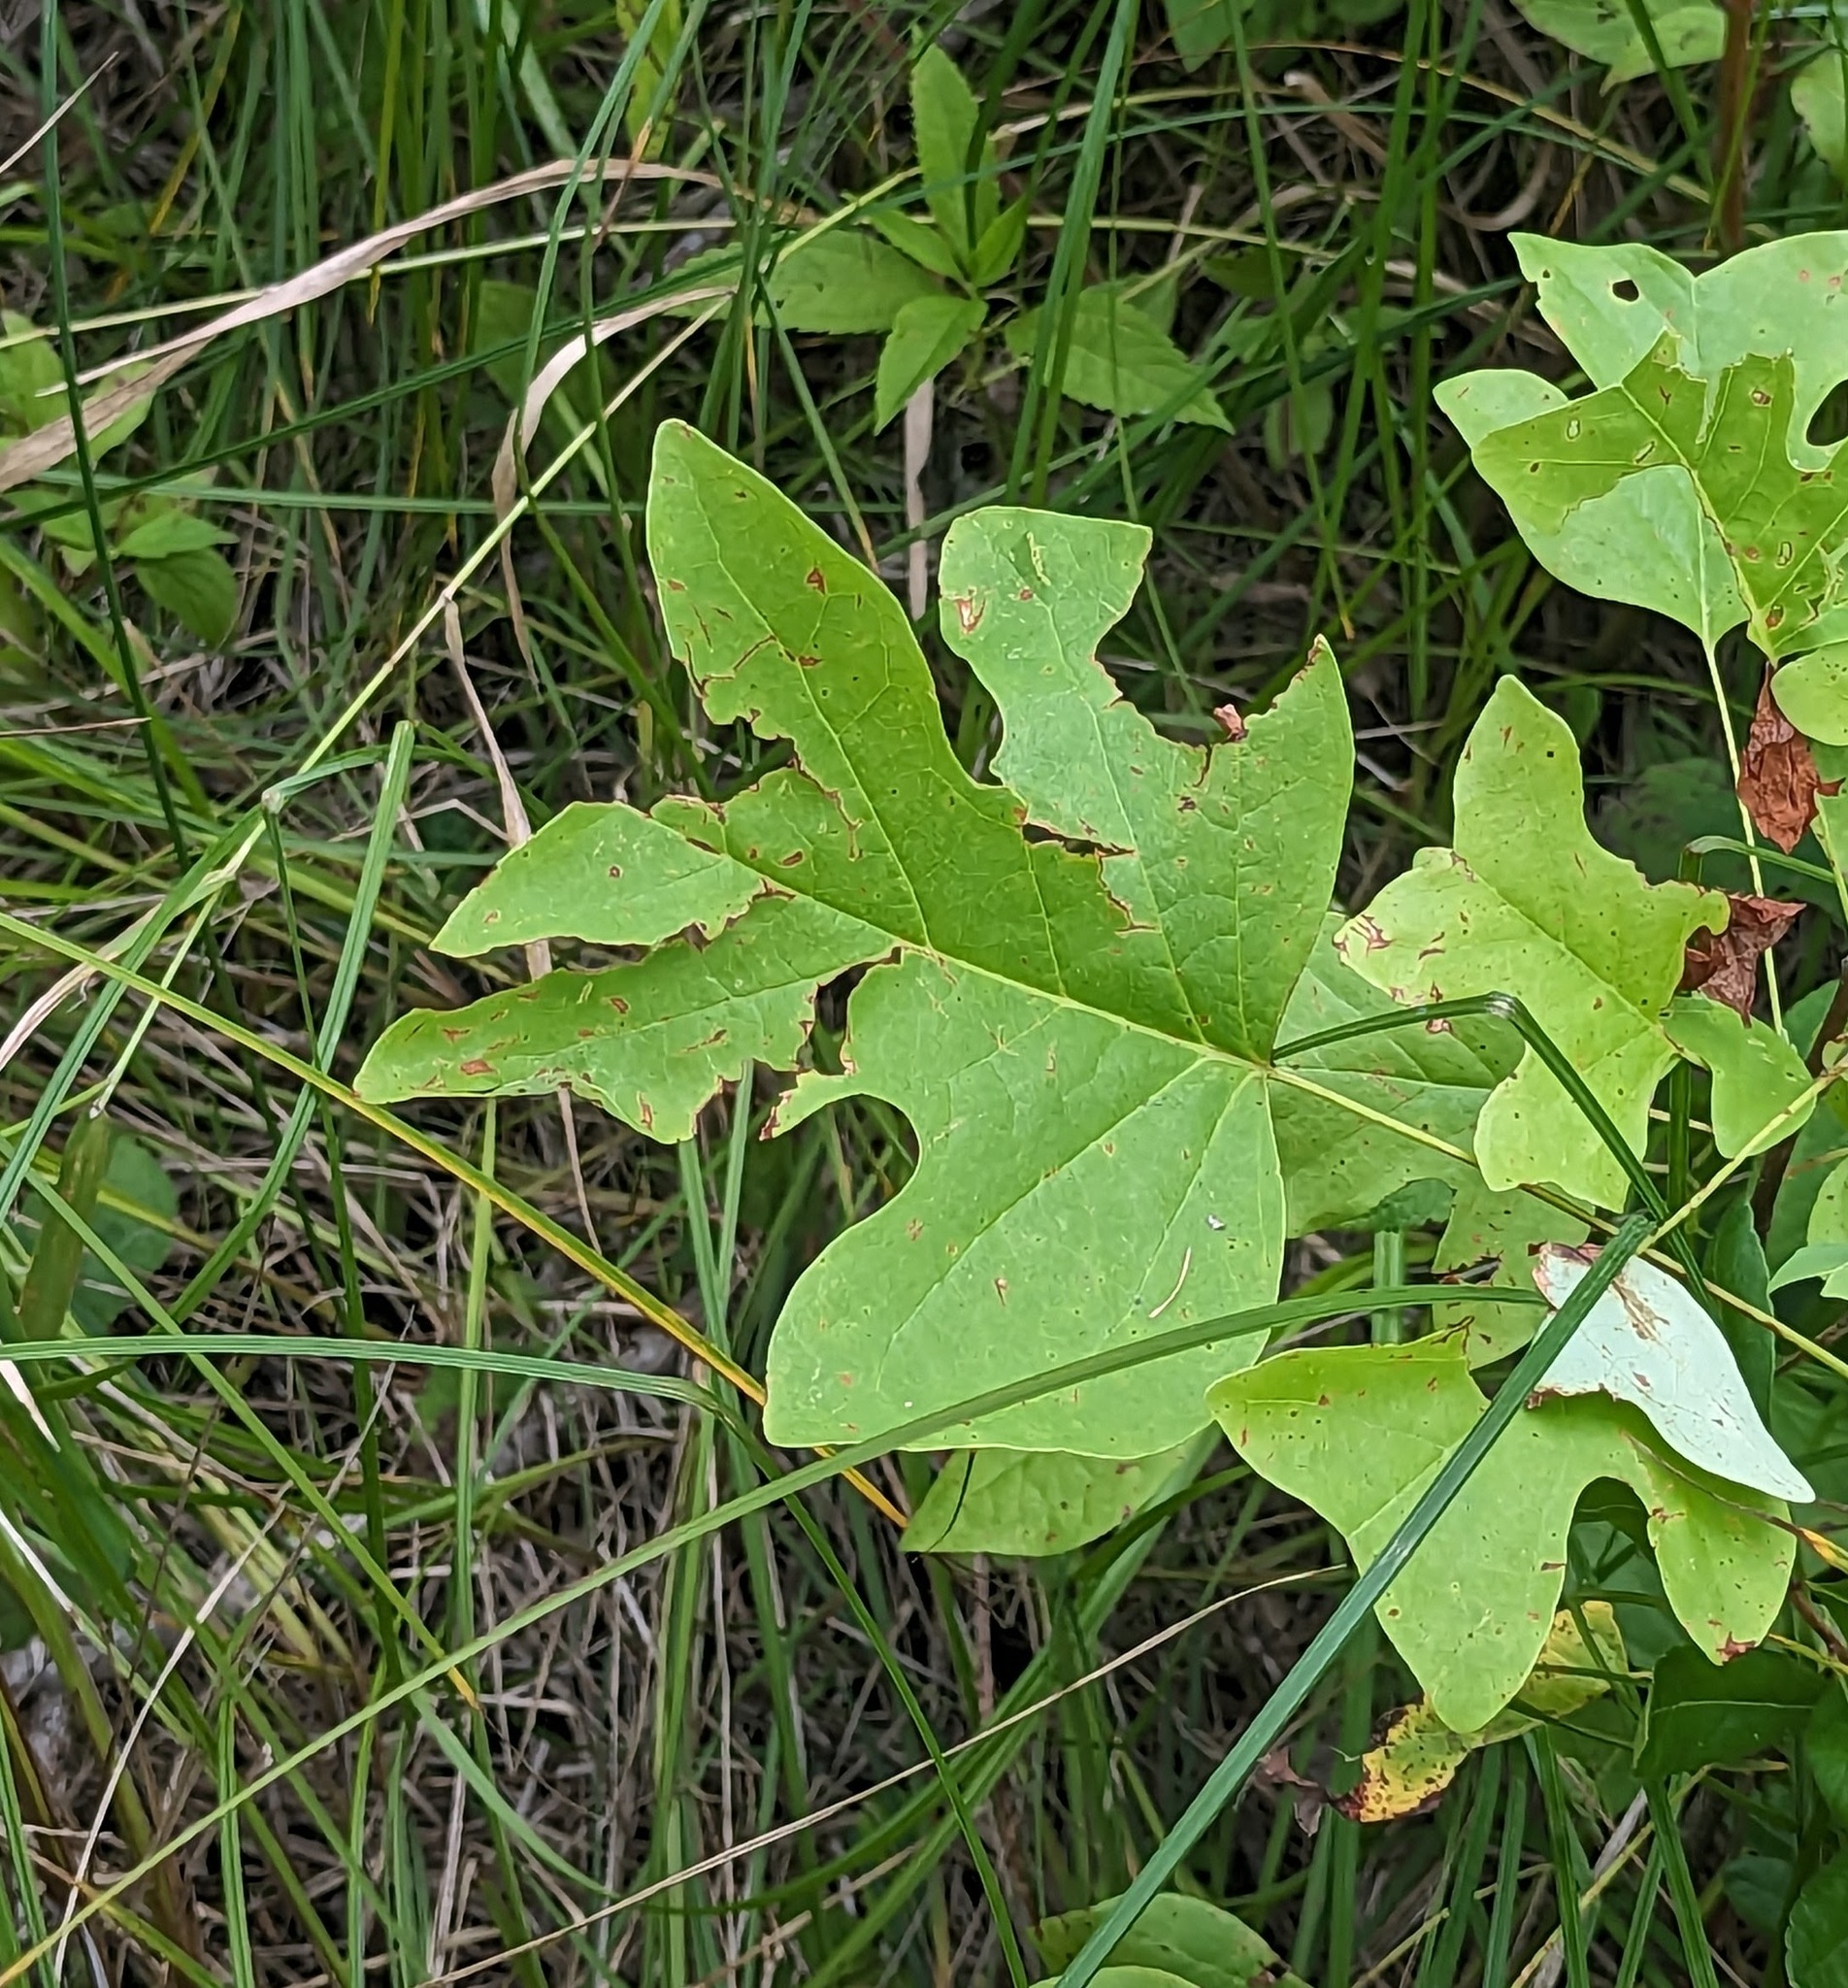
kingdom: Plantae
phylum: Tracheophyta
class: Magnoliopsida
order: Magnoliales
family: Magnoliaceae
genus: Liriodendron
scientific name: Liriodendron tulipifera
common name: Tulip tree
